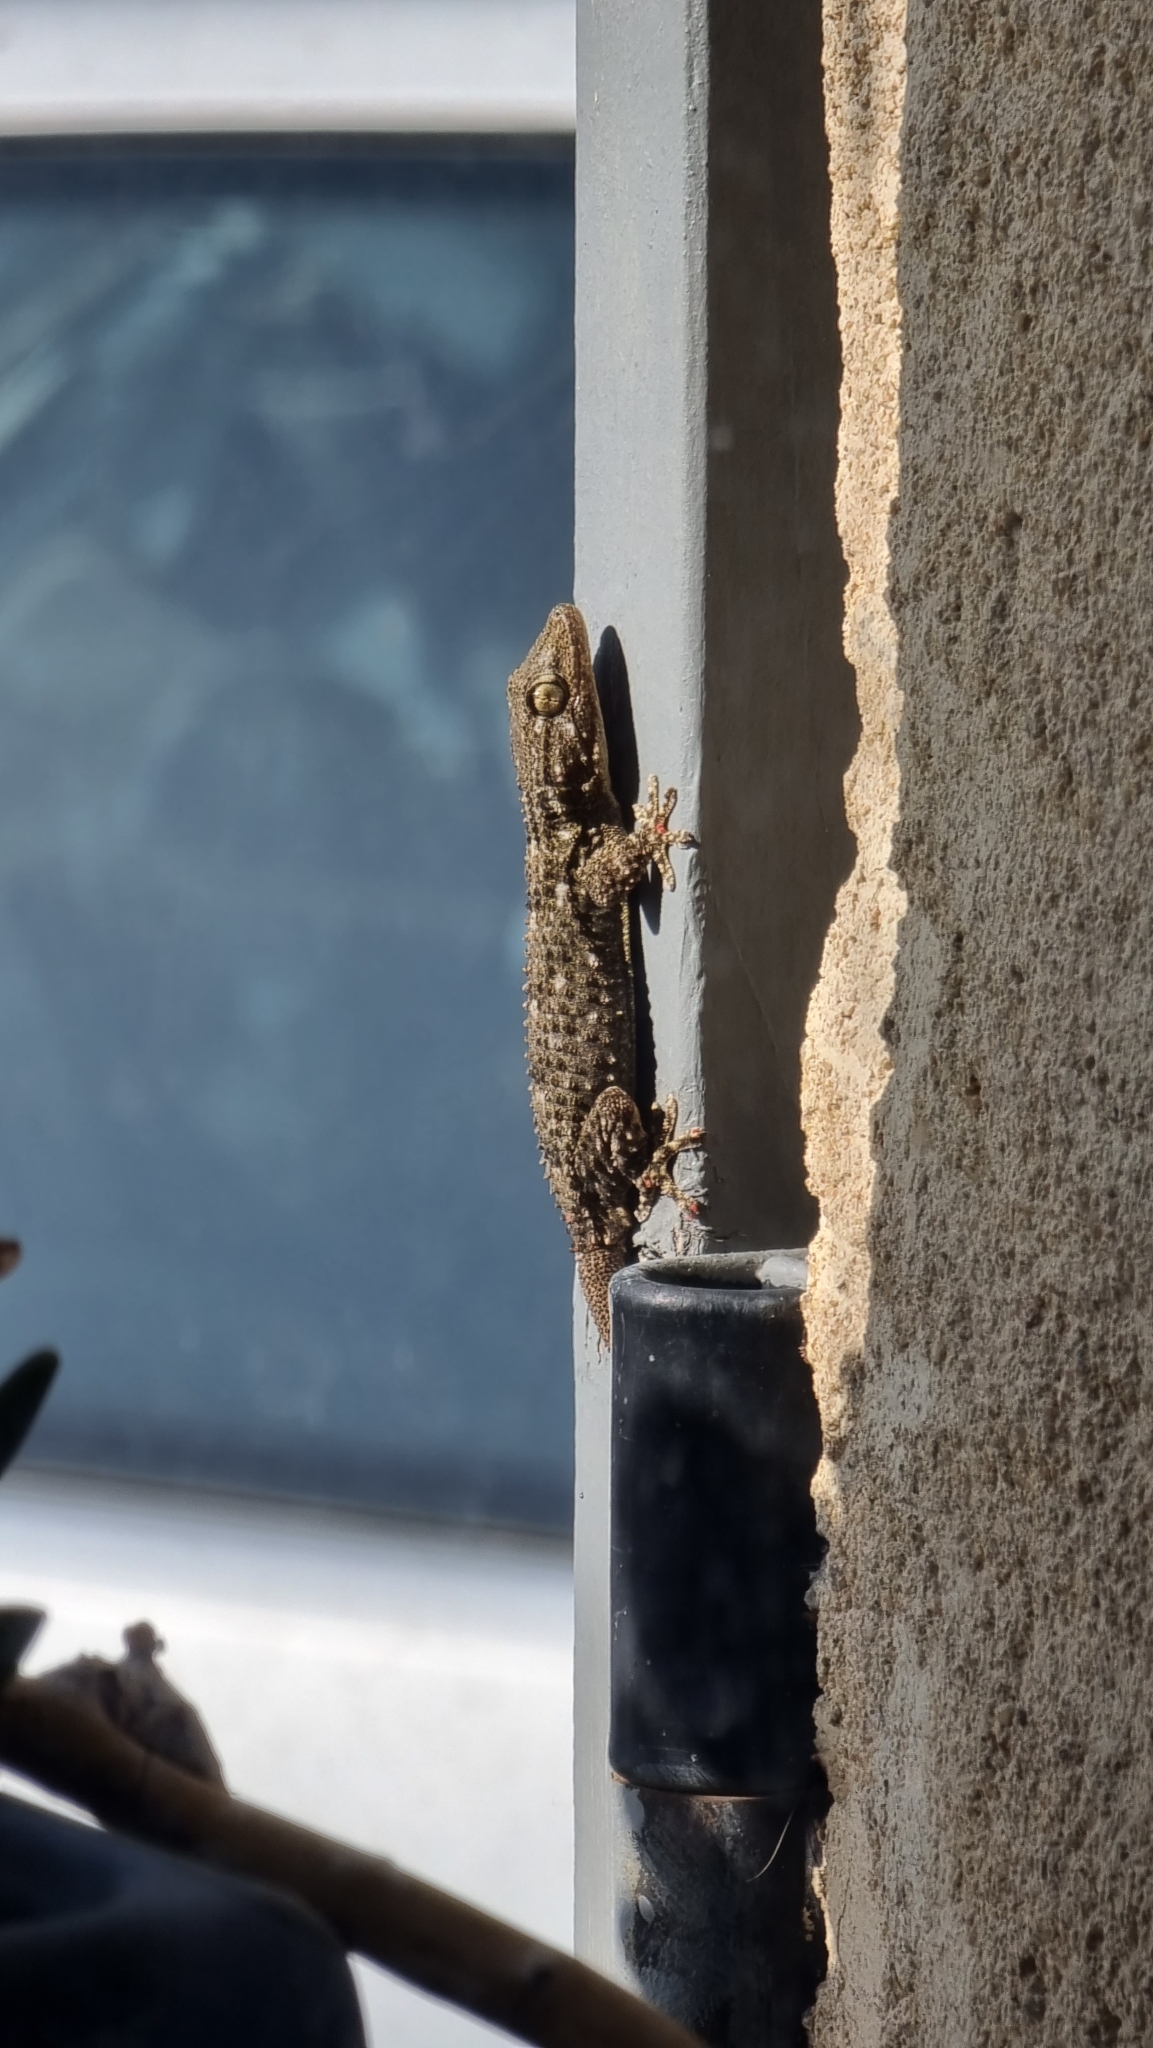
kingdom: Animalia
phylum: Chordata
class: Squamata
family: Phyllodactylidae
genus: Tarentola
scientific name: Tarentola mauritanica
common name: Moorish gecko
